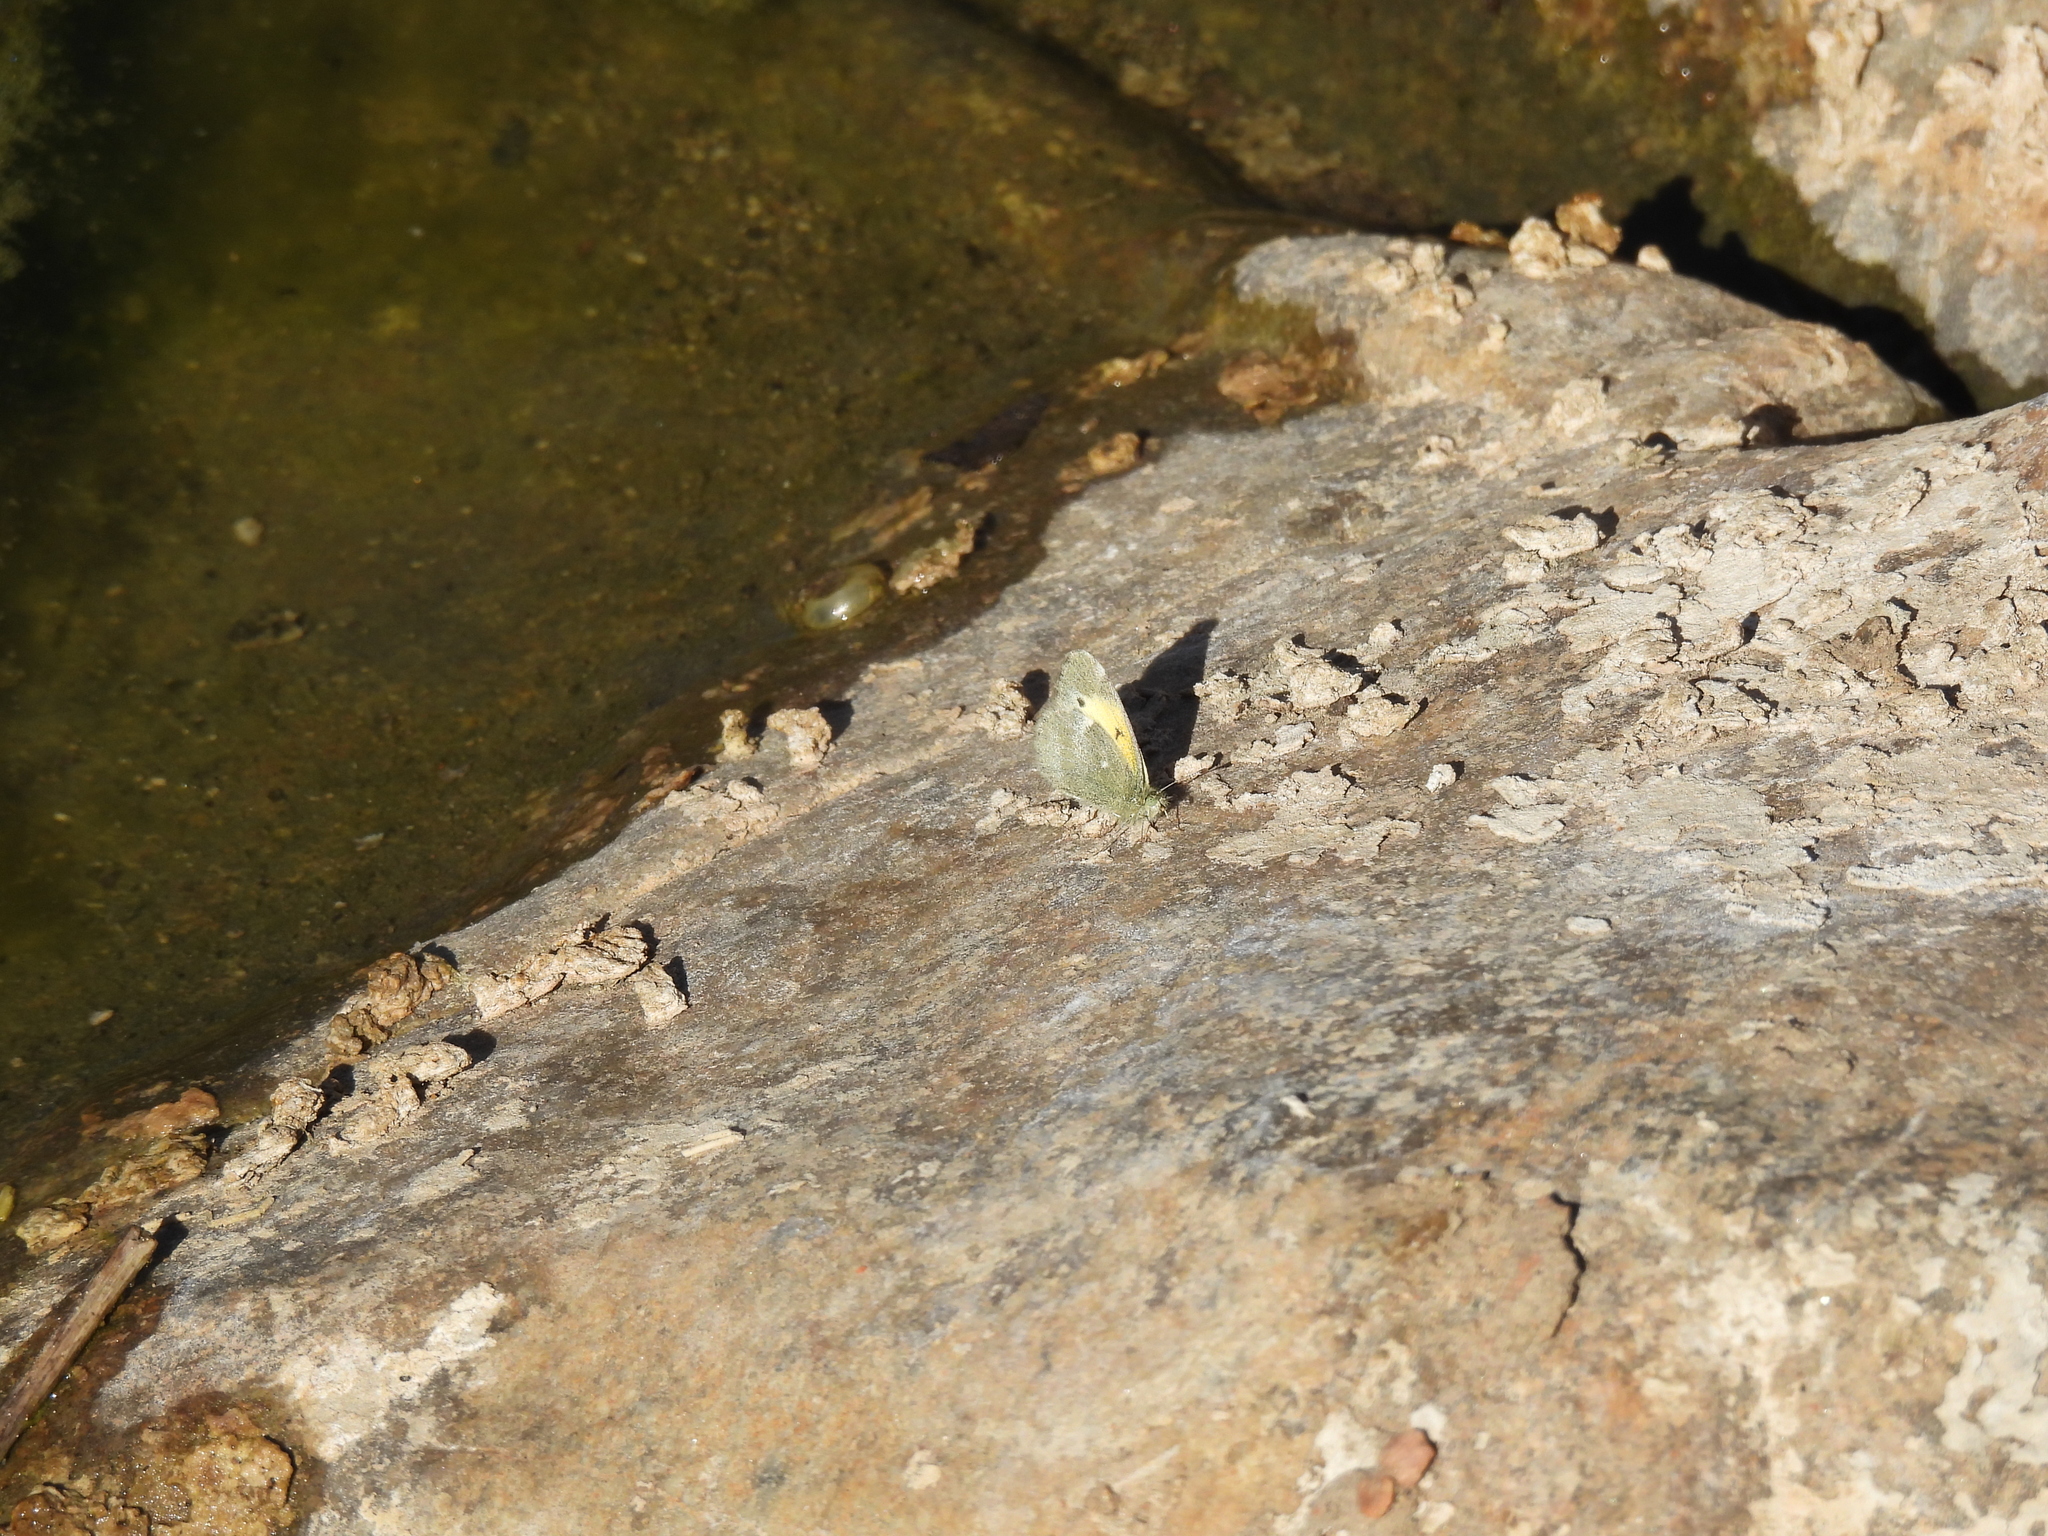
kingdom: Animalia
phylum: Arthropoda
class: Insecta
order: Lepidoptera
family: Pieridae
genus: Nathalis
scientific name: Nathalis iole
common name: Dainty sulphur
